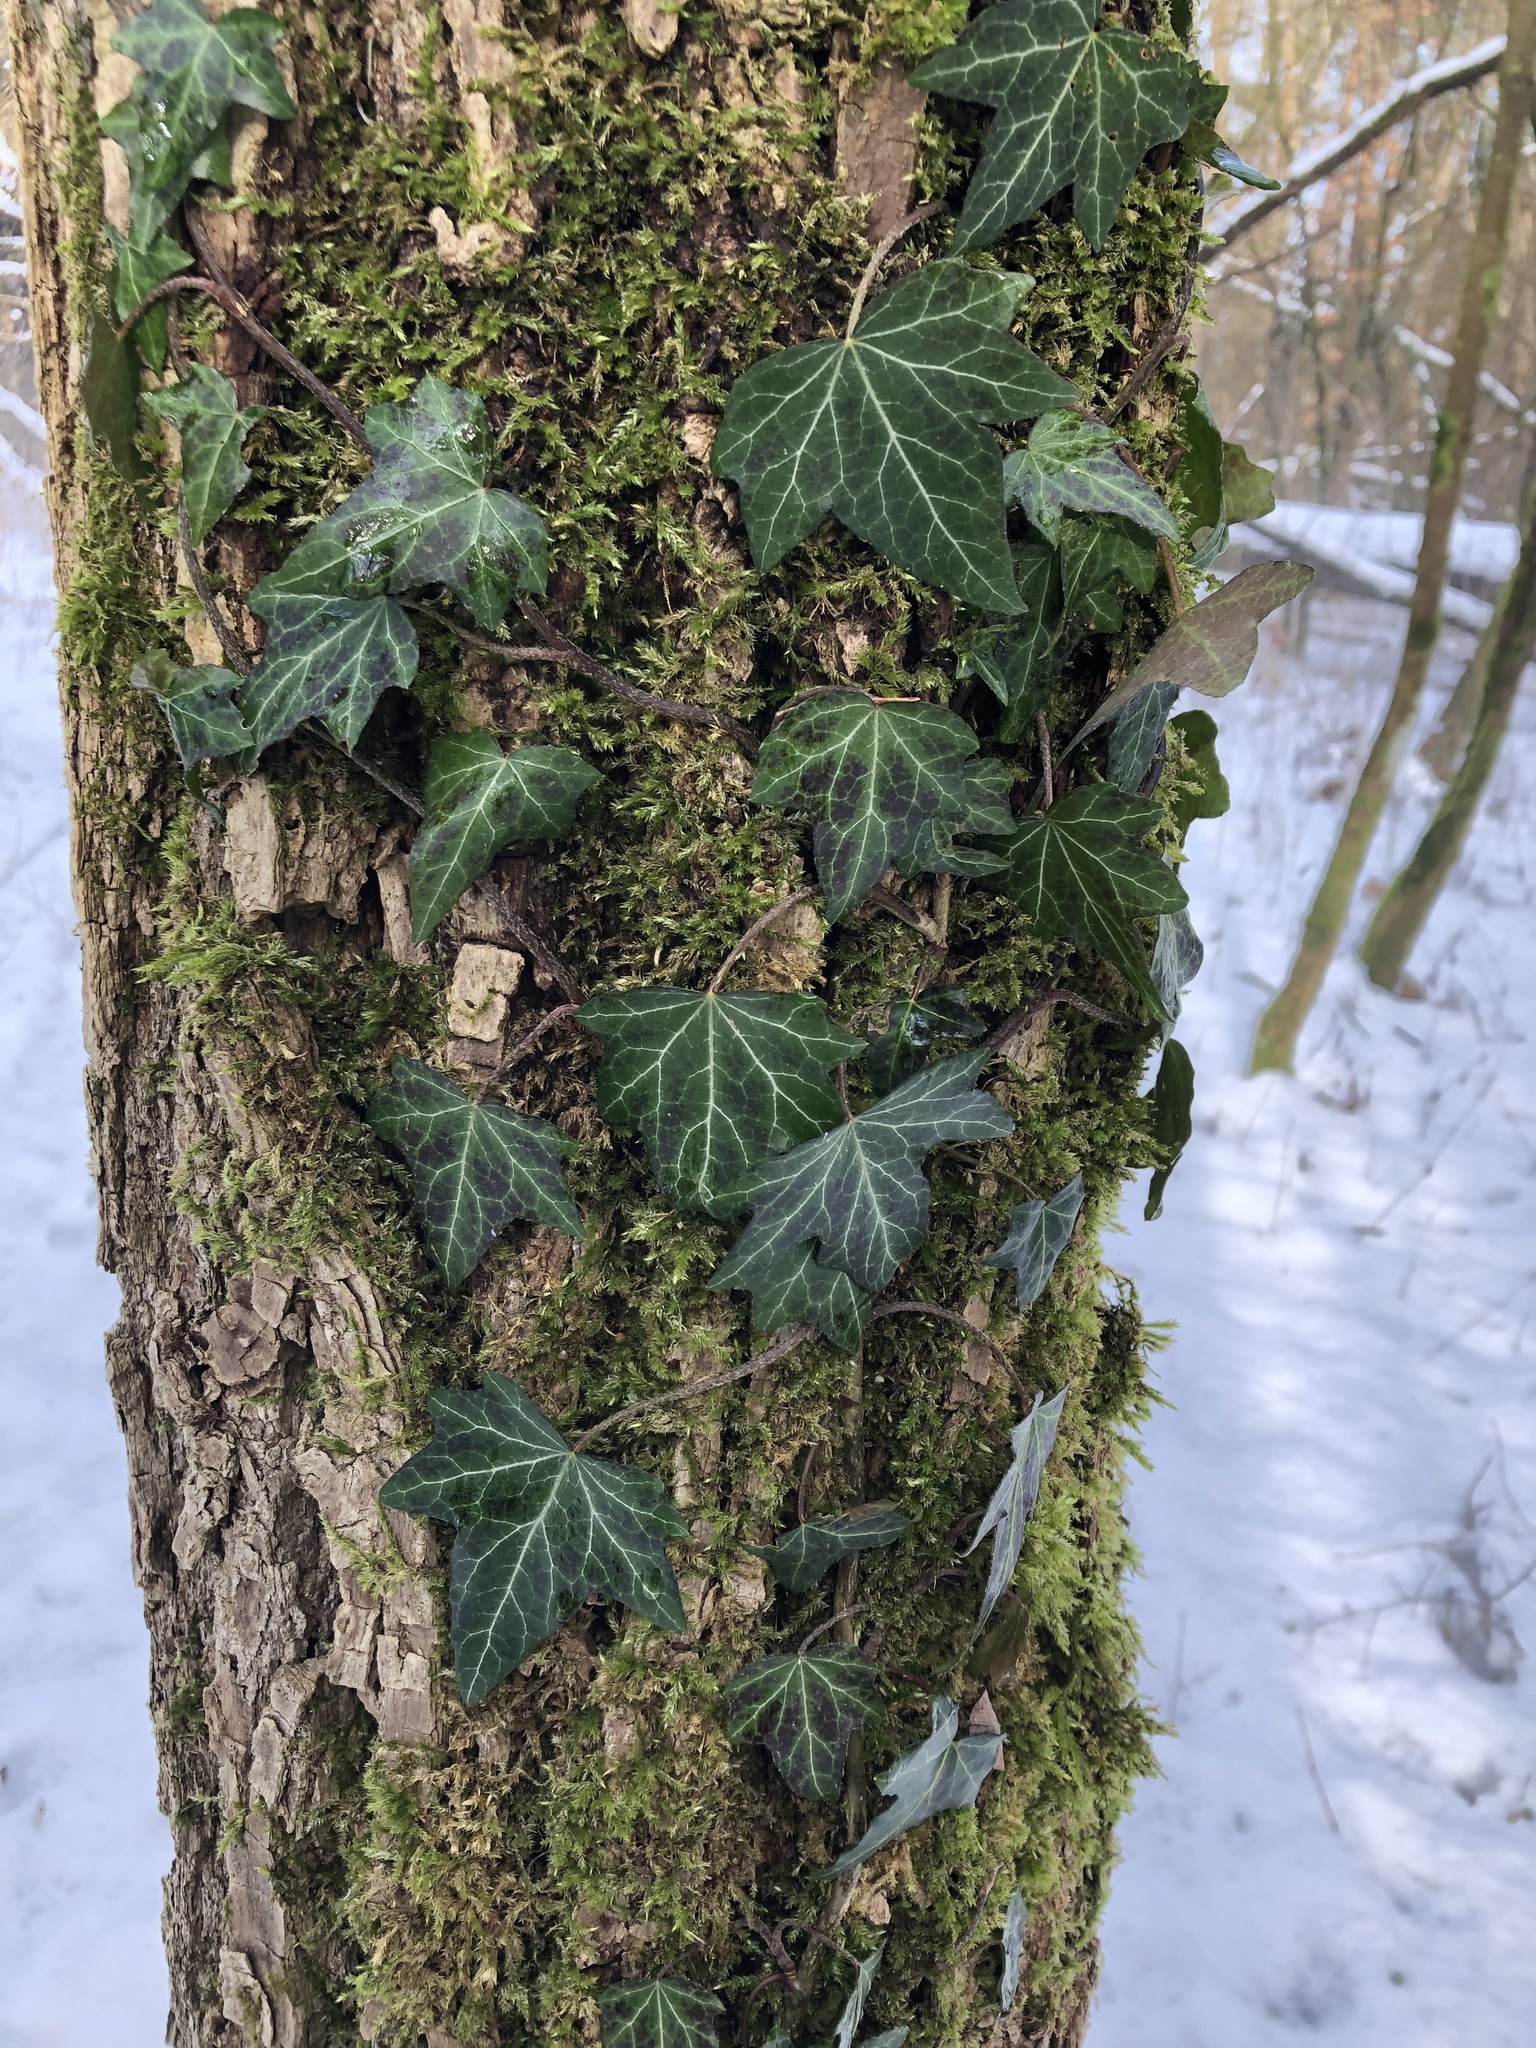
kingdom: Plantae
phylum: Tracheophyta
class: Magnoliopsida
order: Apiales
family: Araliaceae
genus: Hedera
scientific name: Hedera helix
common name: Ivy
